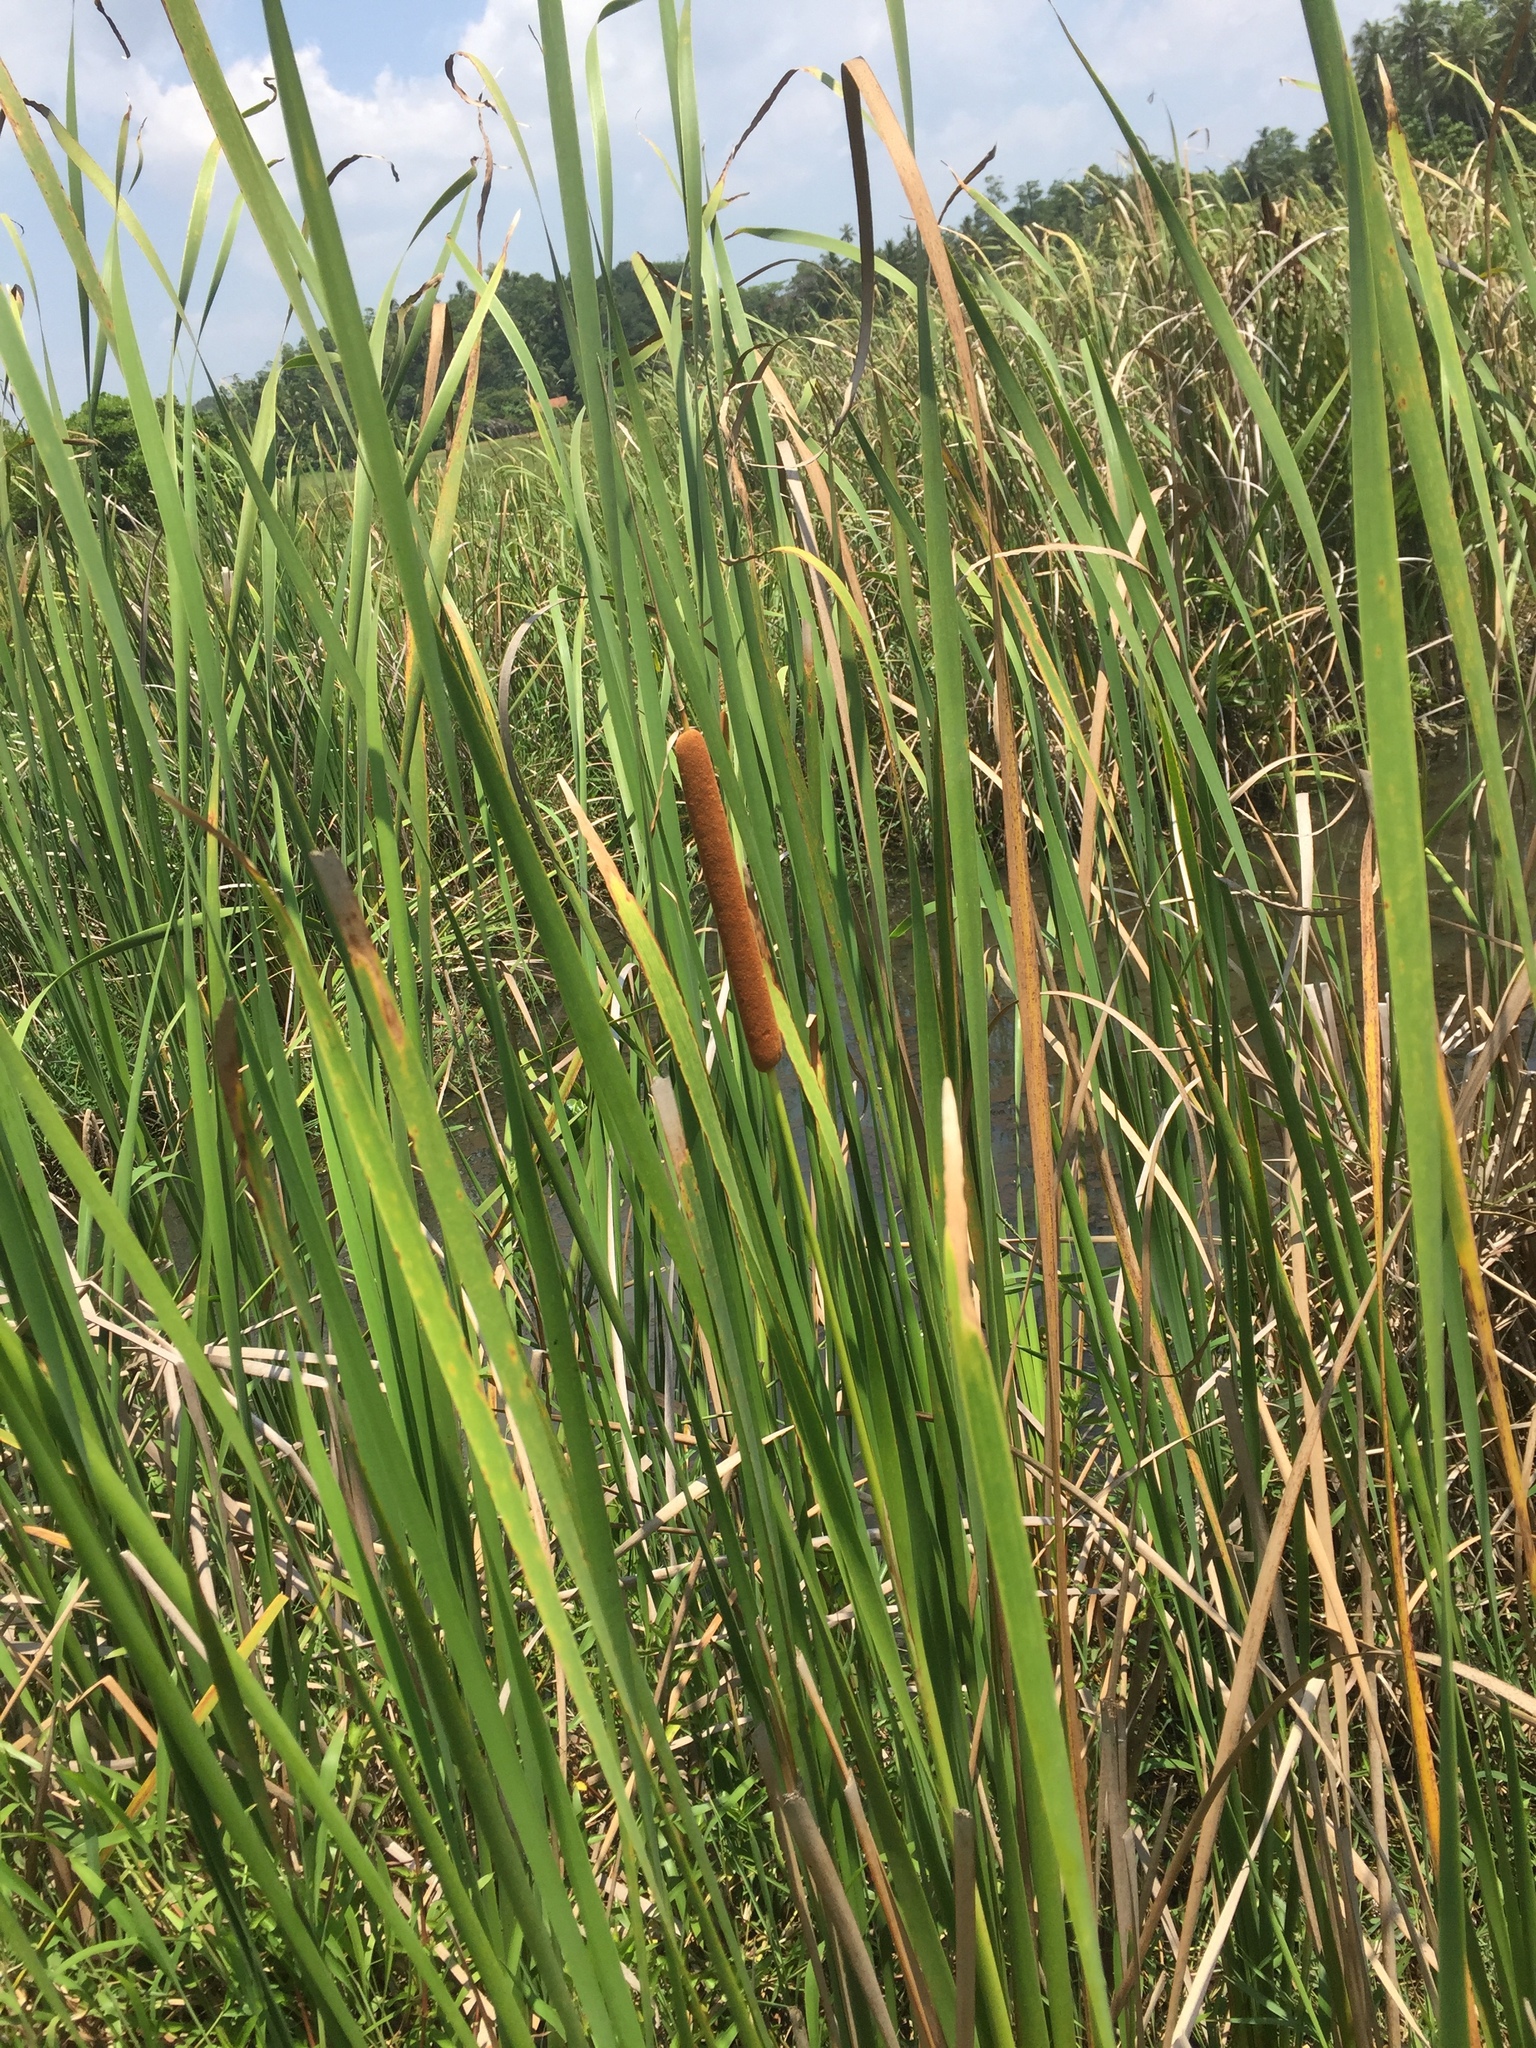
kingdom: Plantae
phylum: Tracheophyta
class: Liliopsida
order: Poales
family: Typhaceae
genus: Typha
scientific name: Typha angustifolia
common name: Lesser bulrush
